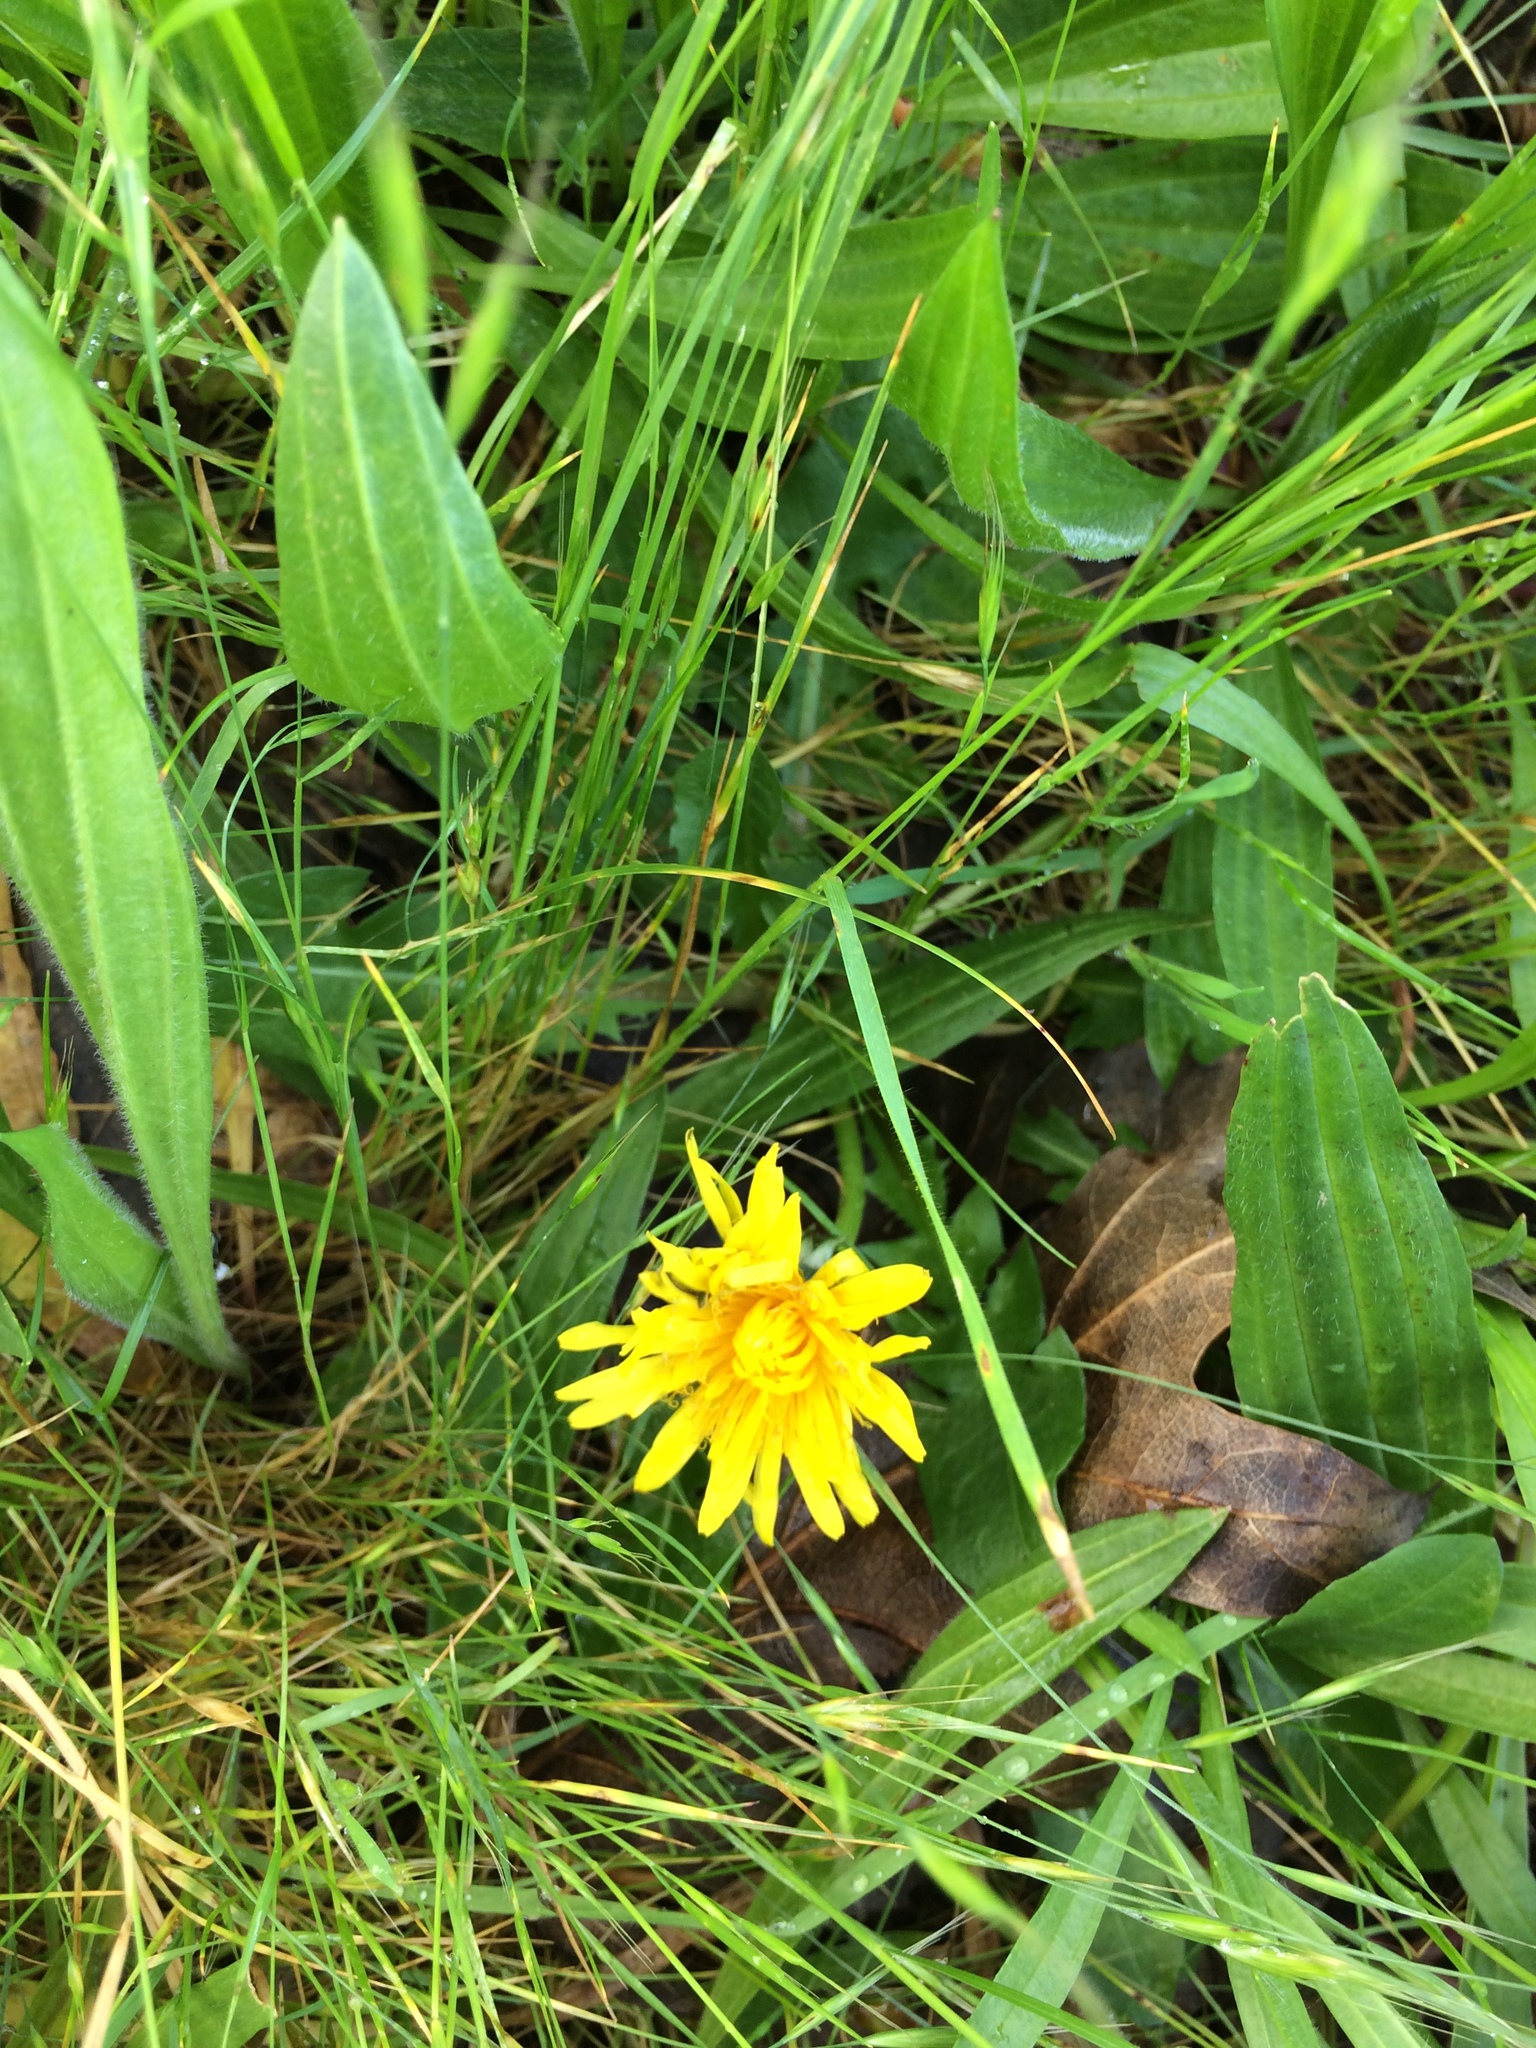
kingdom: Plantae
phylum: Tracheophyta
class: Magnoliopsida
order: Asterales
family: Asteraceae
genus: Taraxacum
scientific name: Taraxacum officinale
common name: Common dandelion
